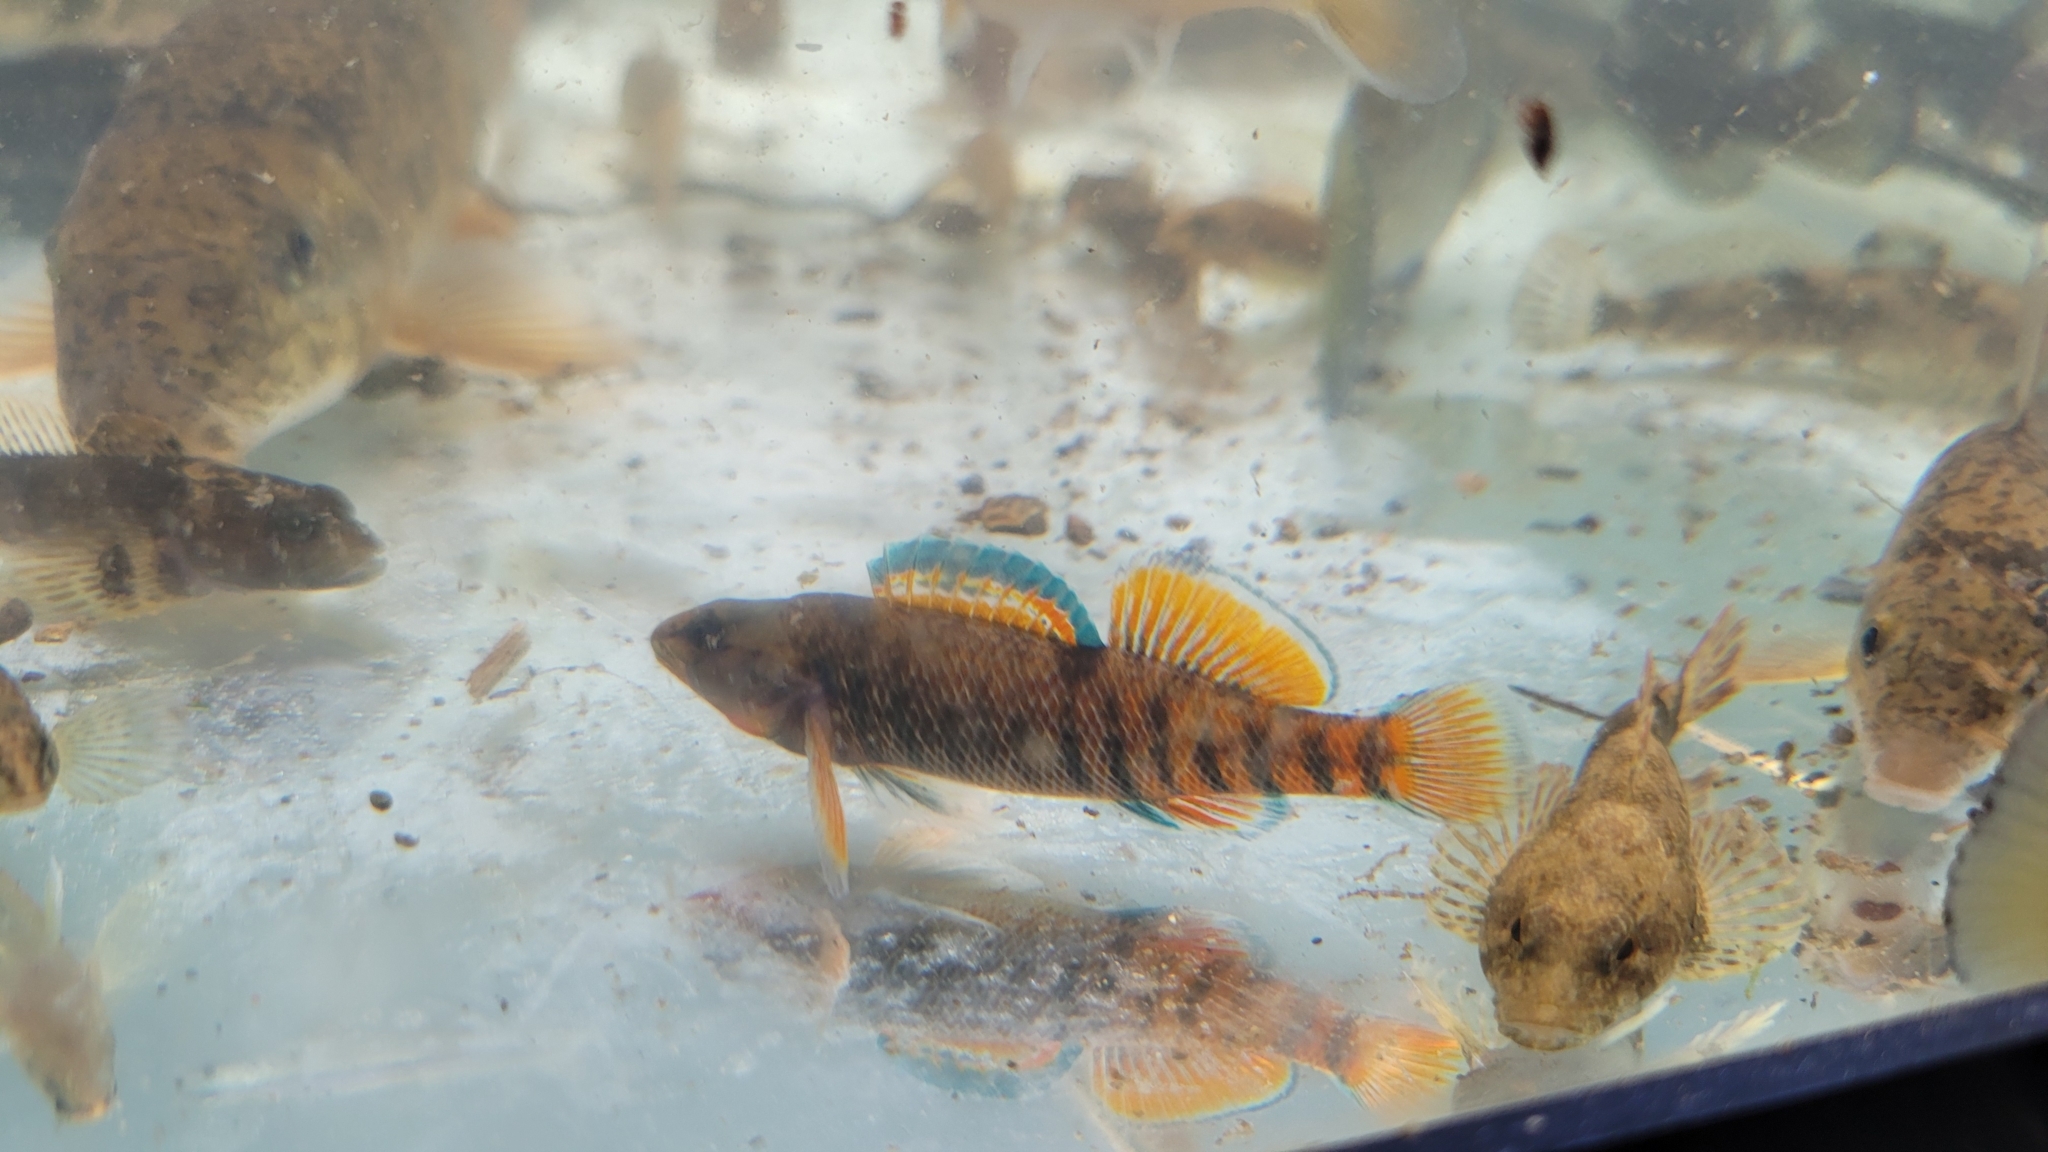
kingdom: Animalia
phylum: Chordata
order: Perciformes
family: Percidae
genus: Etheostoma
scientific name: Etheostoma caeruleum
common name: Rainbow darter
